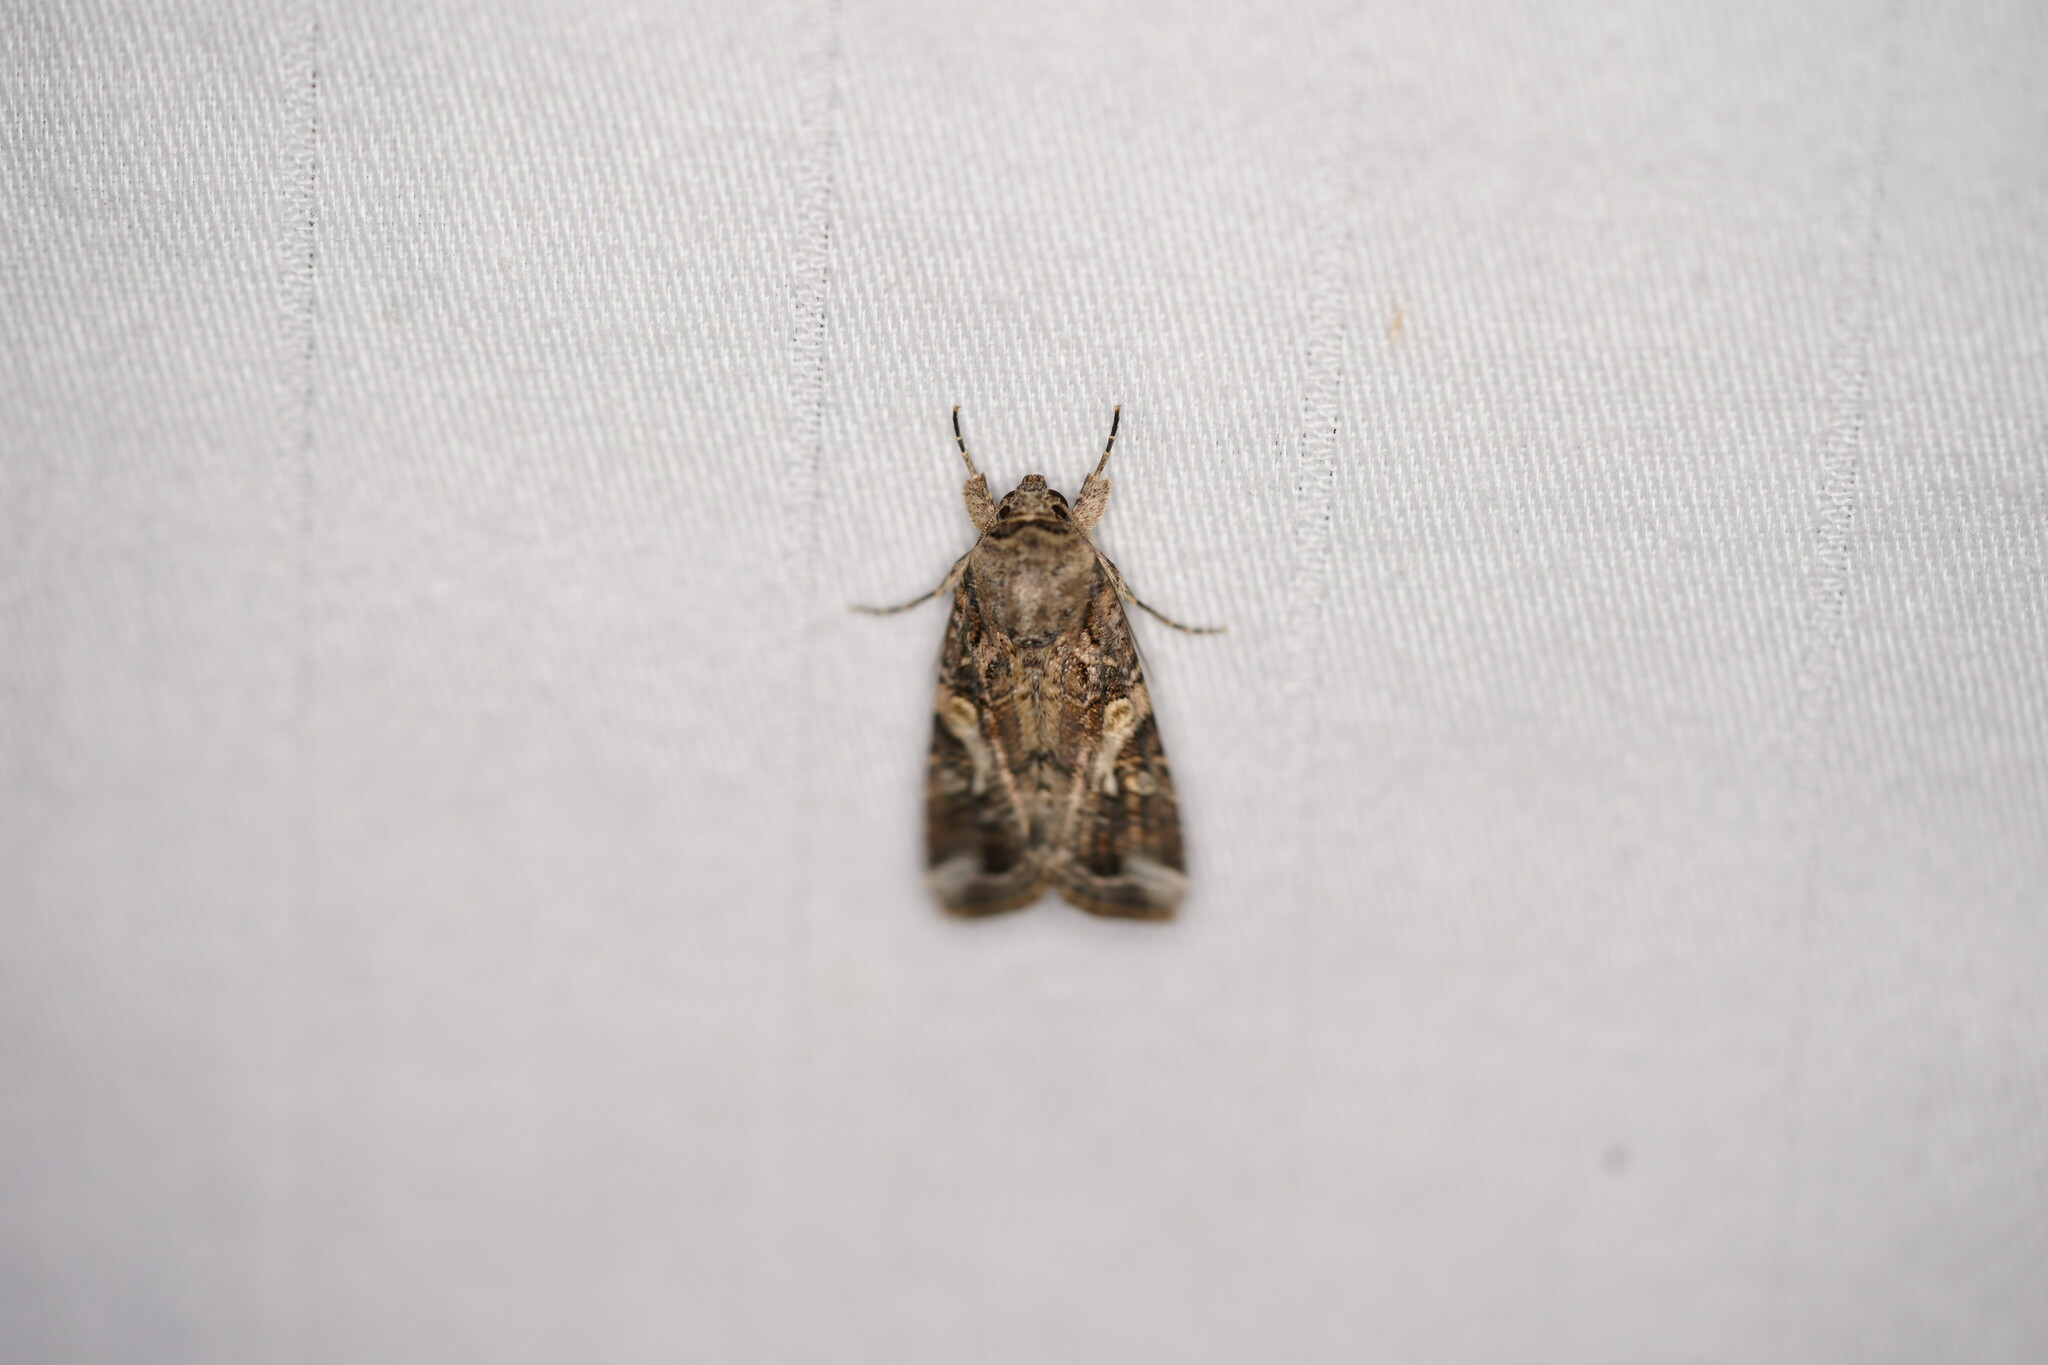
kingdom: Animalia
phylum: Arthropoda
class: Insecta
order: Lepidoptera
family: Noctuidae
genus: Spodoptera
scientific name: Spodoptera frugiperda
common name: Fall armyworm
